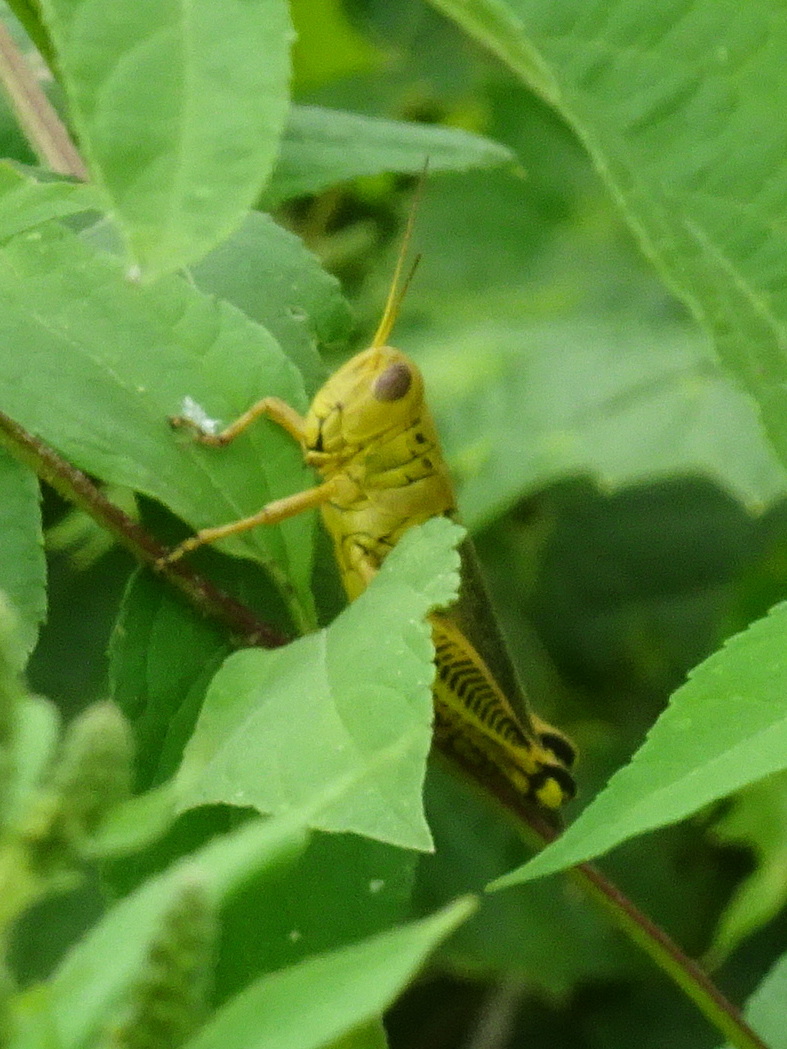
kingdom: Animalia
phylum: Arthropoda
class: Insecta
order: Orthoptera
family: Acrididae
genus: Melanoplus
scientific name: Melanoplus differentialis
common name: Differential grasshopper
